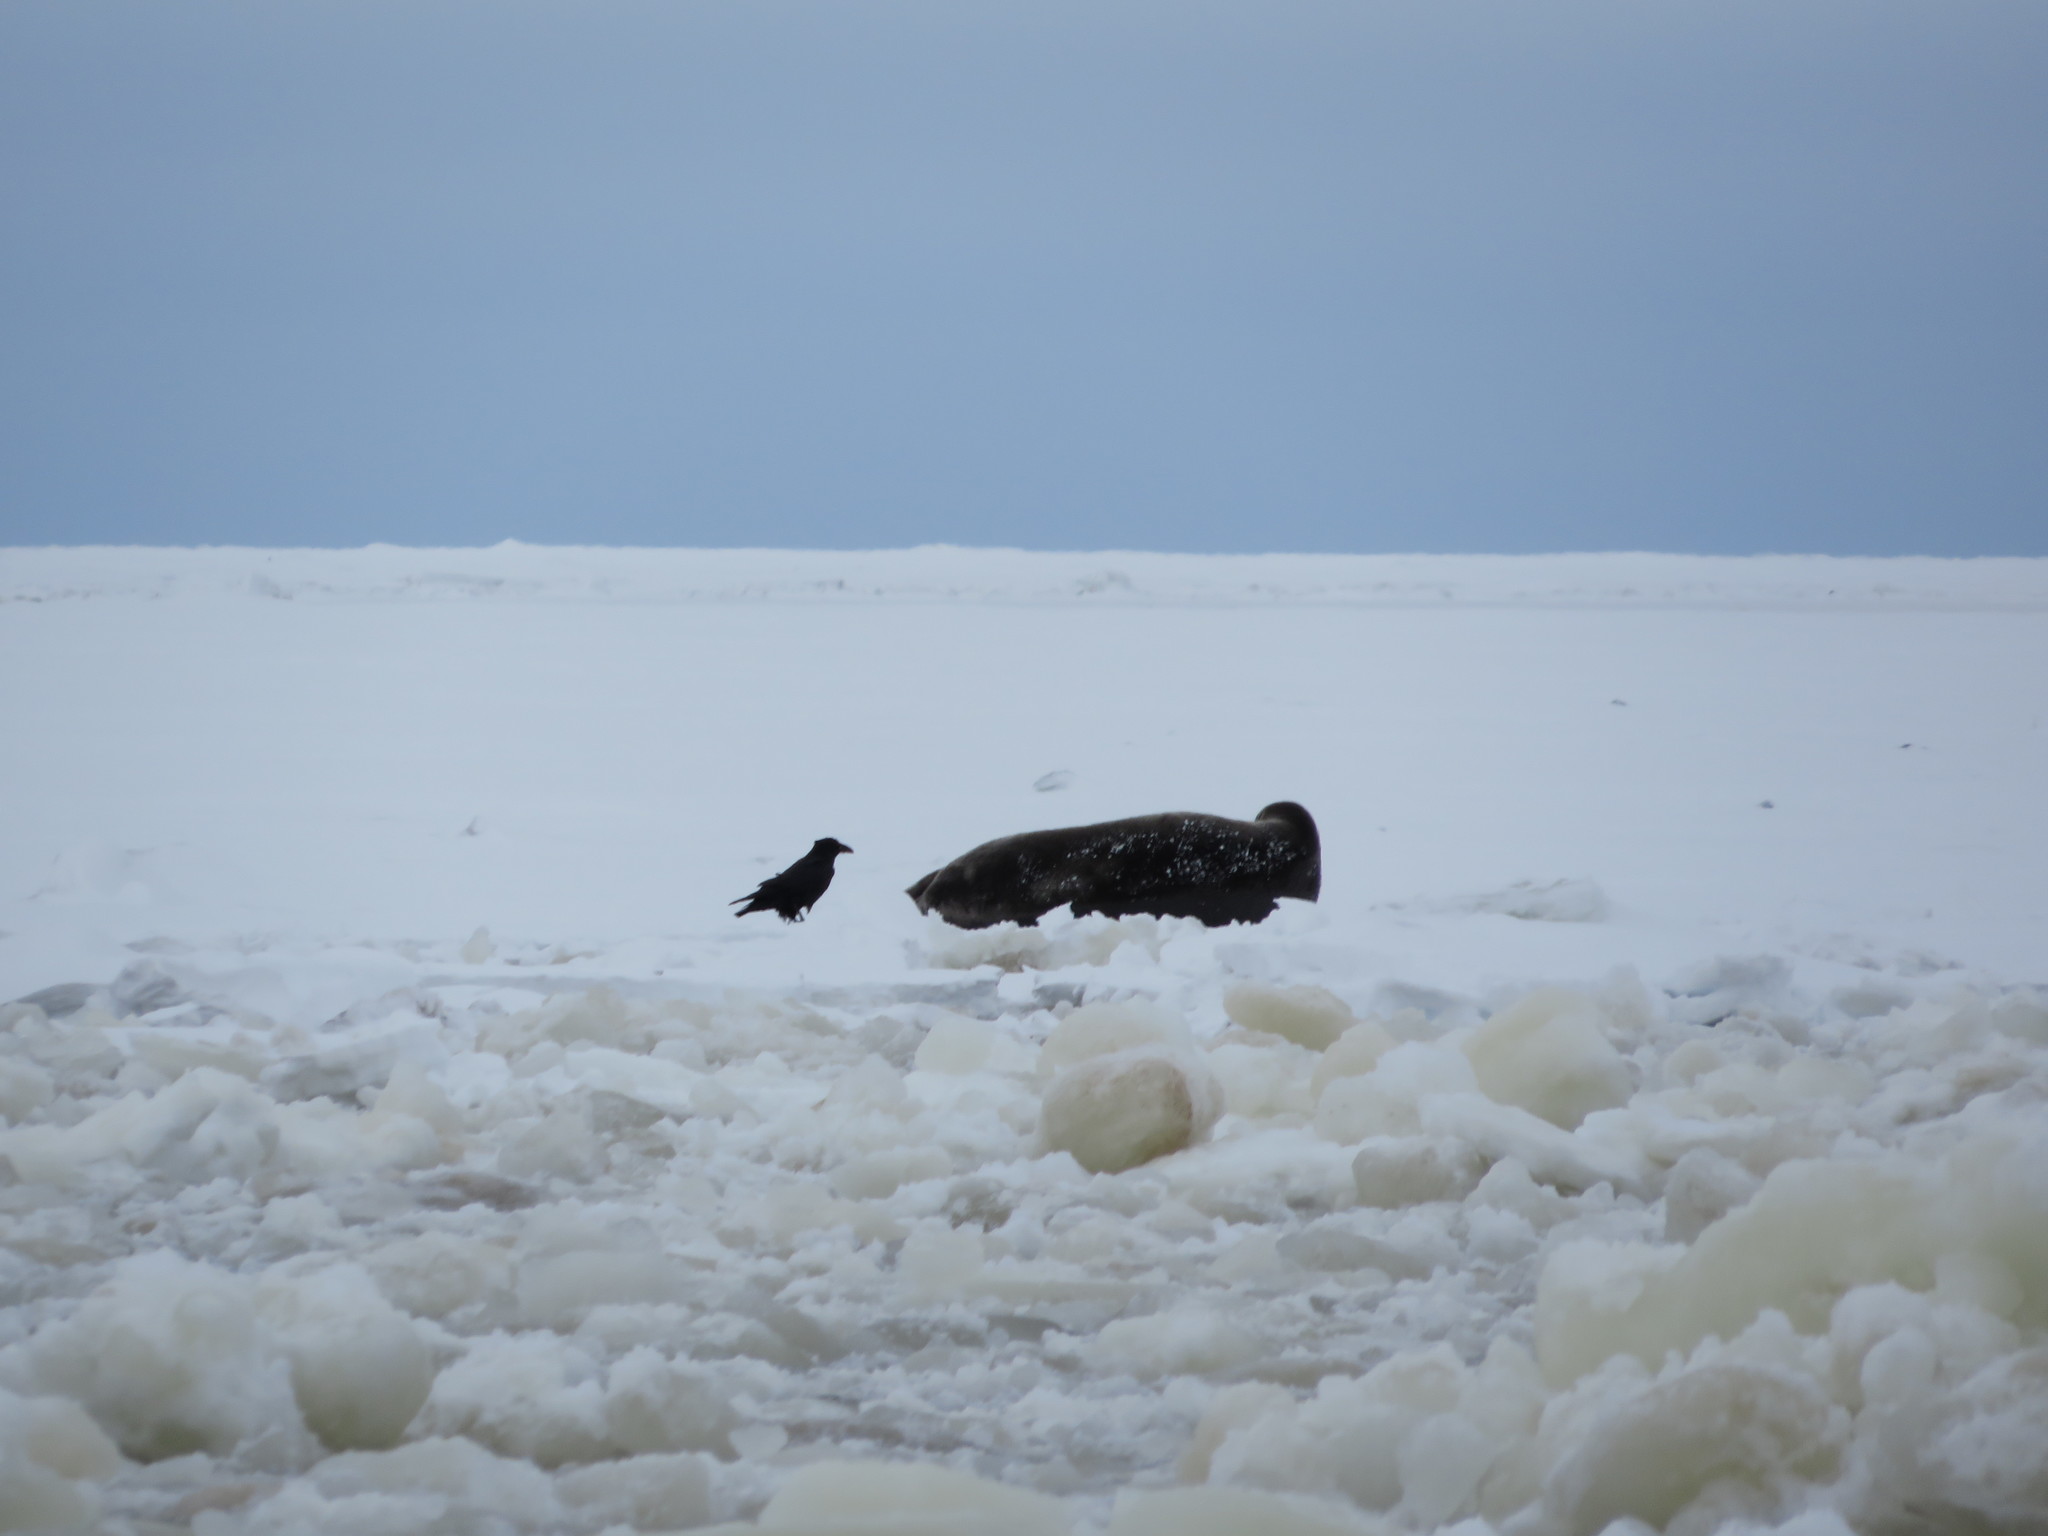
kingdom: Animalia
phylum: Chordata
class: Mammalia
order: Carnivora
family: Phocidae
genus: Erignathus
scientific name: Erignathus barbatus
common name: Bearded seal
